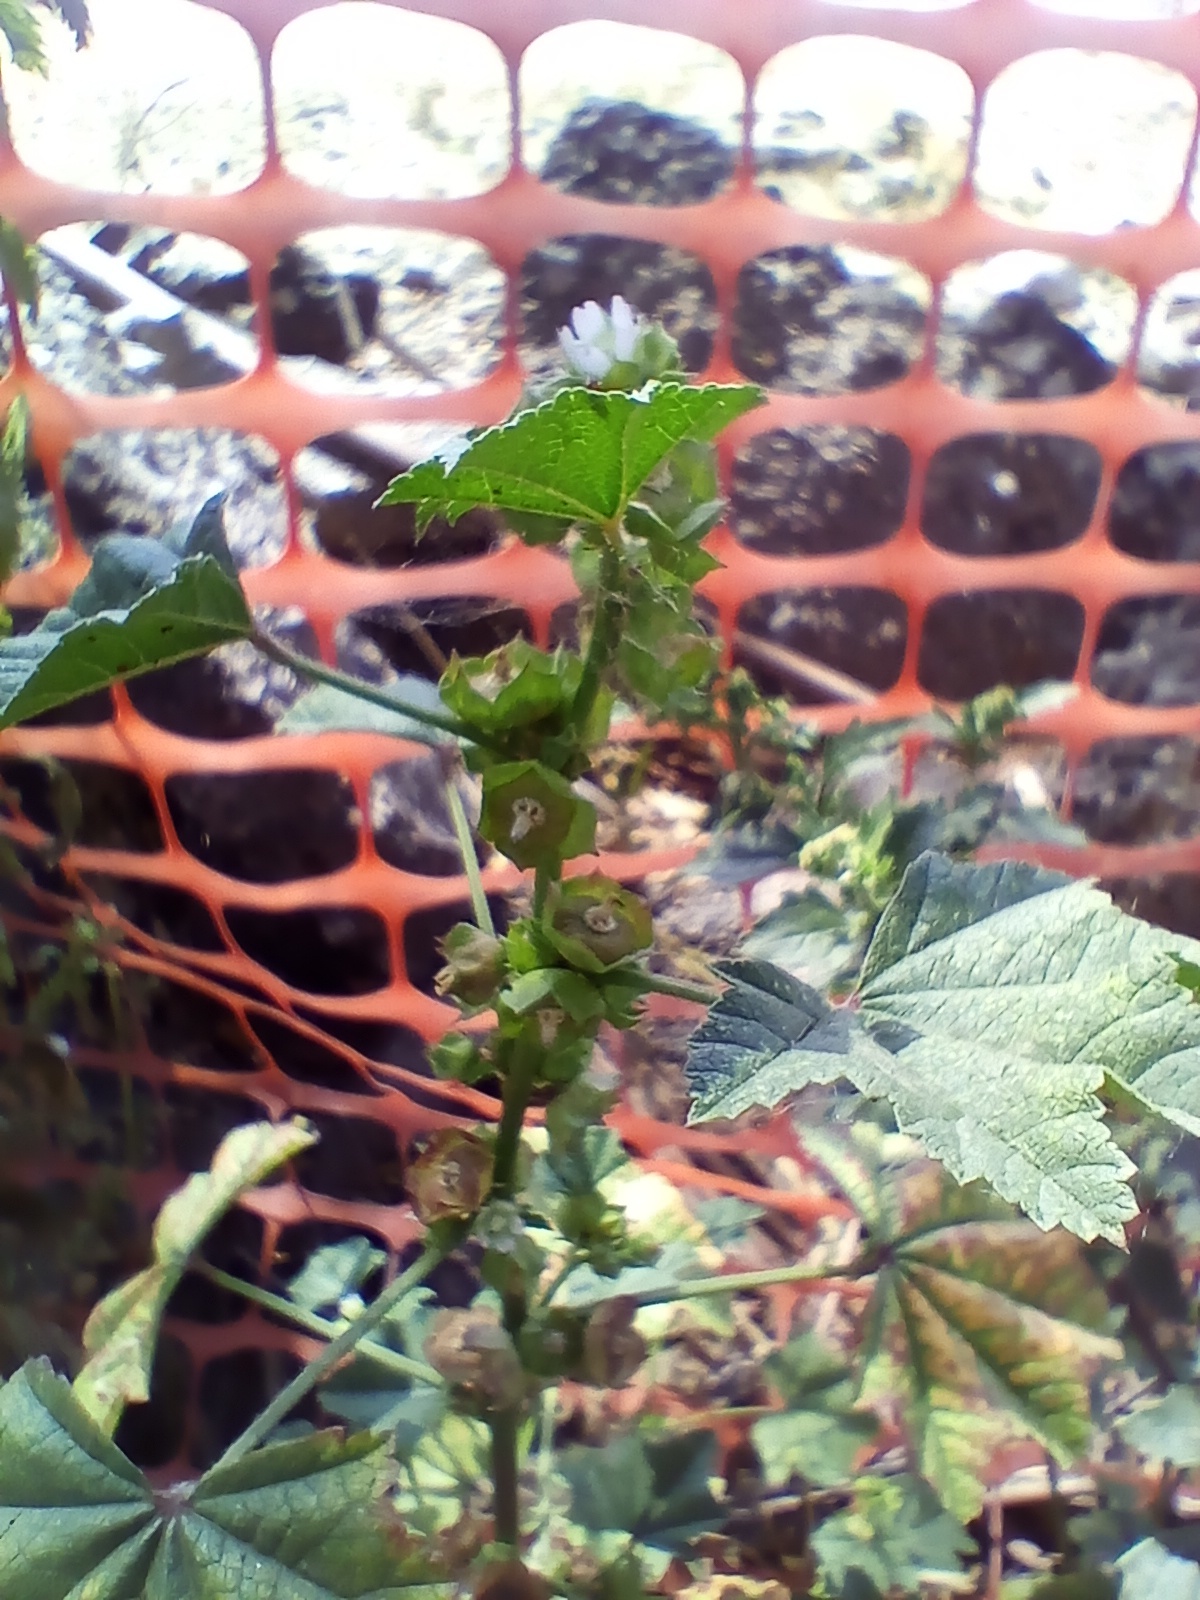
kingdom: Plantae
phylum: Tracheophyta
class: Magnoliopsida
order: Malvales
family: Malvaceae
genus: Malva
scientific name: Malva parviflora
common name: Least mallow
